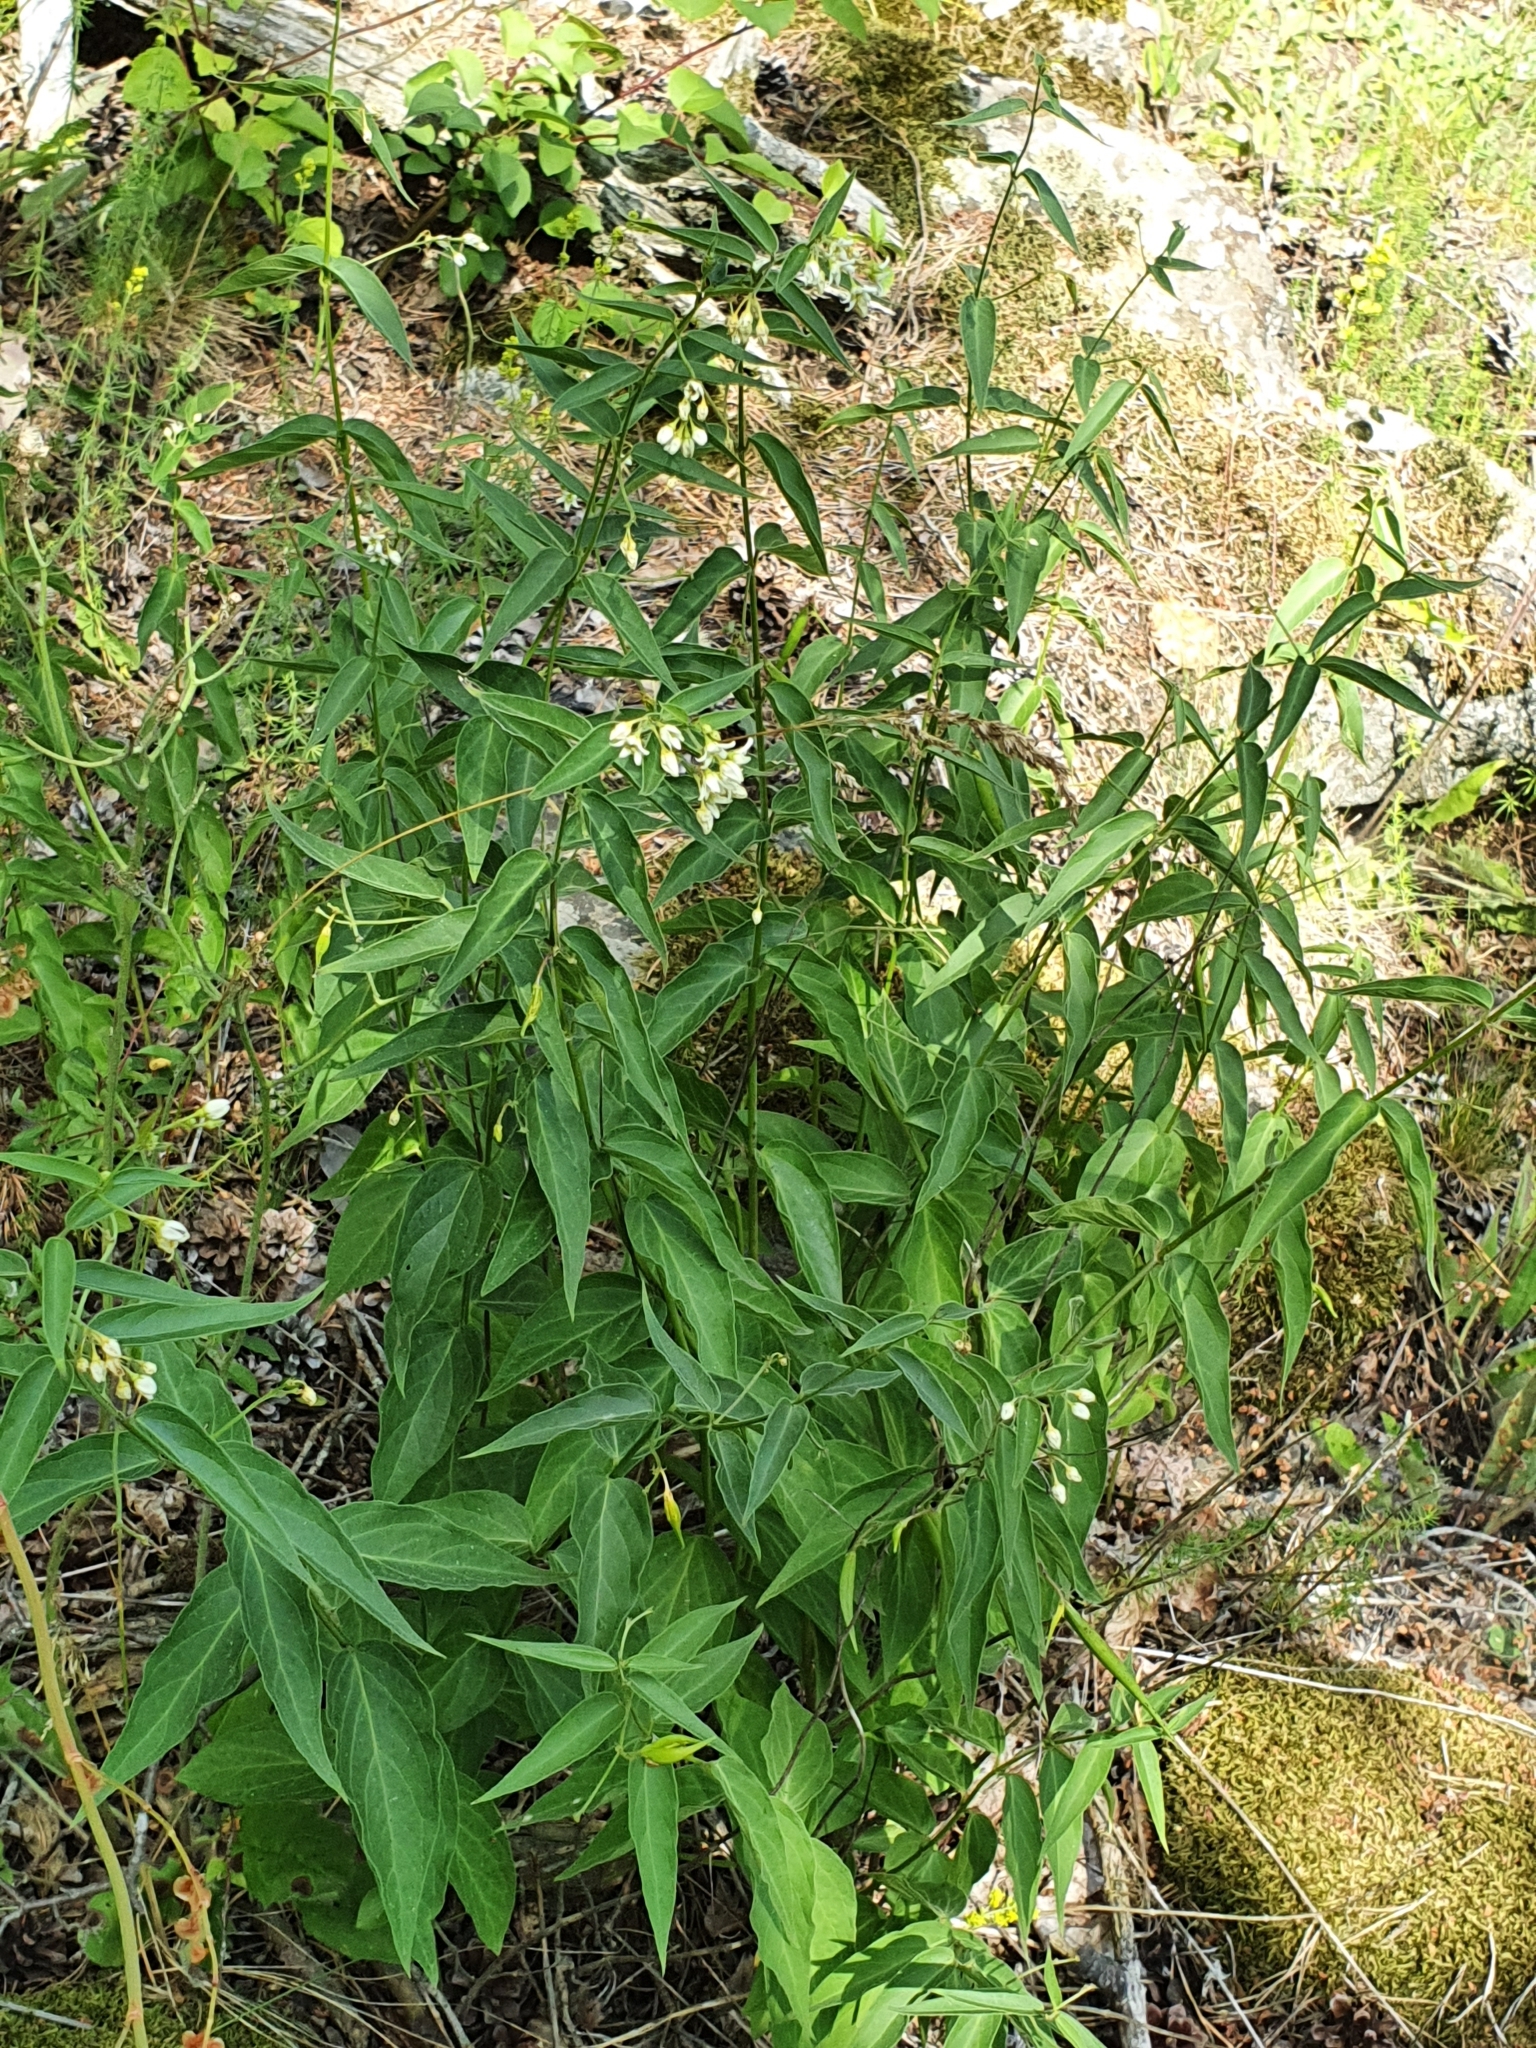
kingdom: Plantae
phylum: Tracheophyta
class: Magnoliopsida
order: Gentianales
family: Apocynaceae
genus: Vincetoxicum
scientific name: Vincetoxicum hirundinaria
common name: White swallowwort
